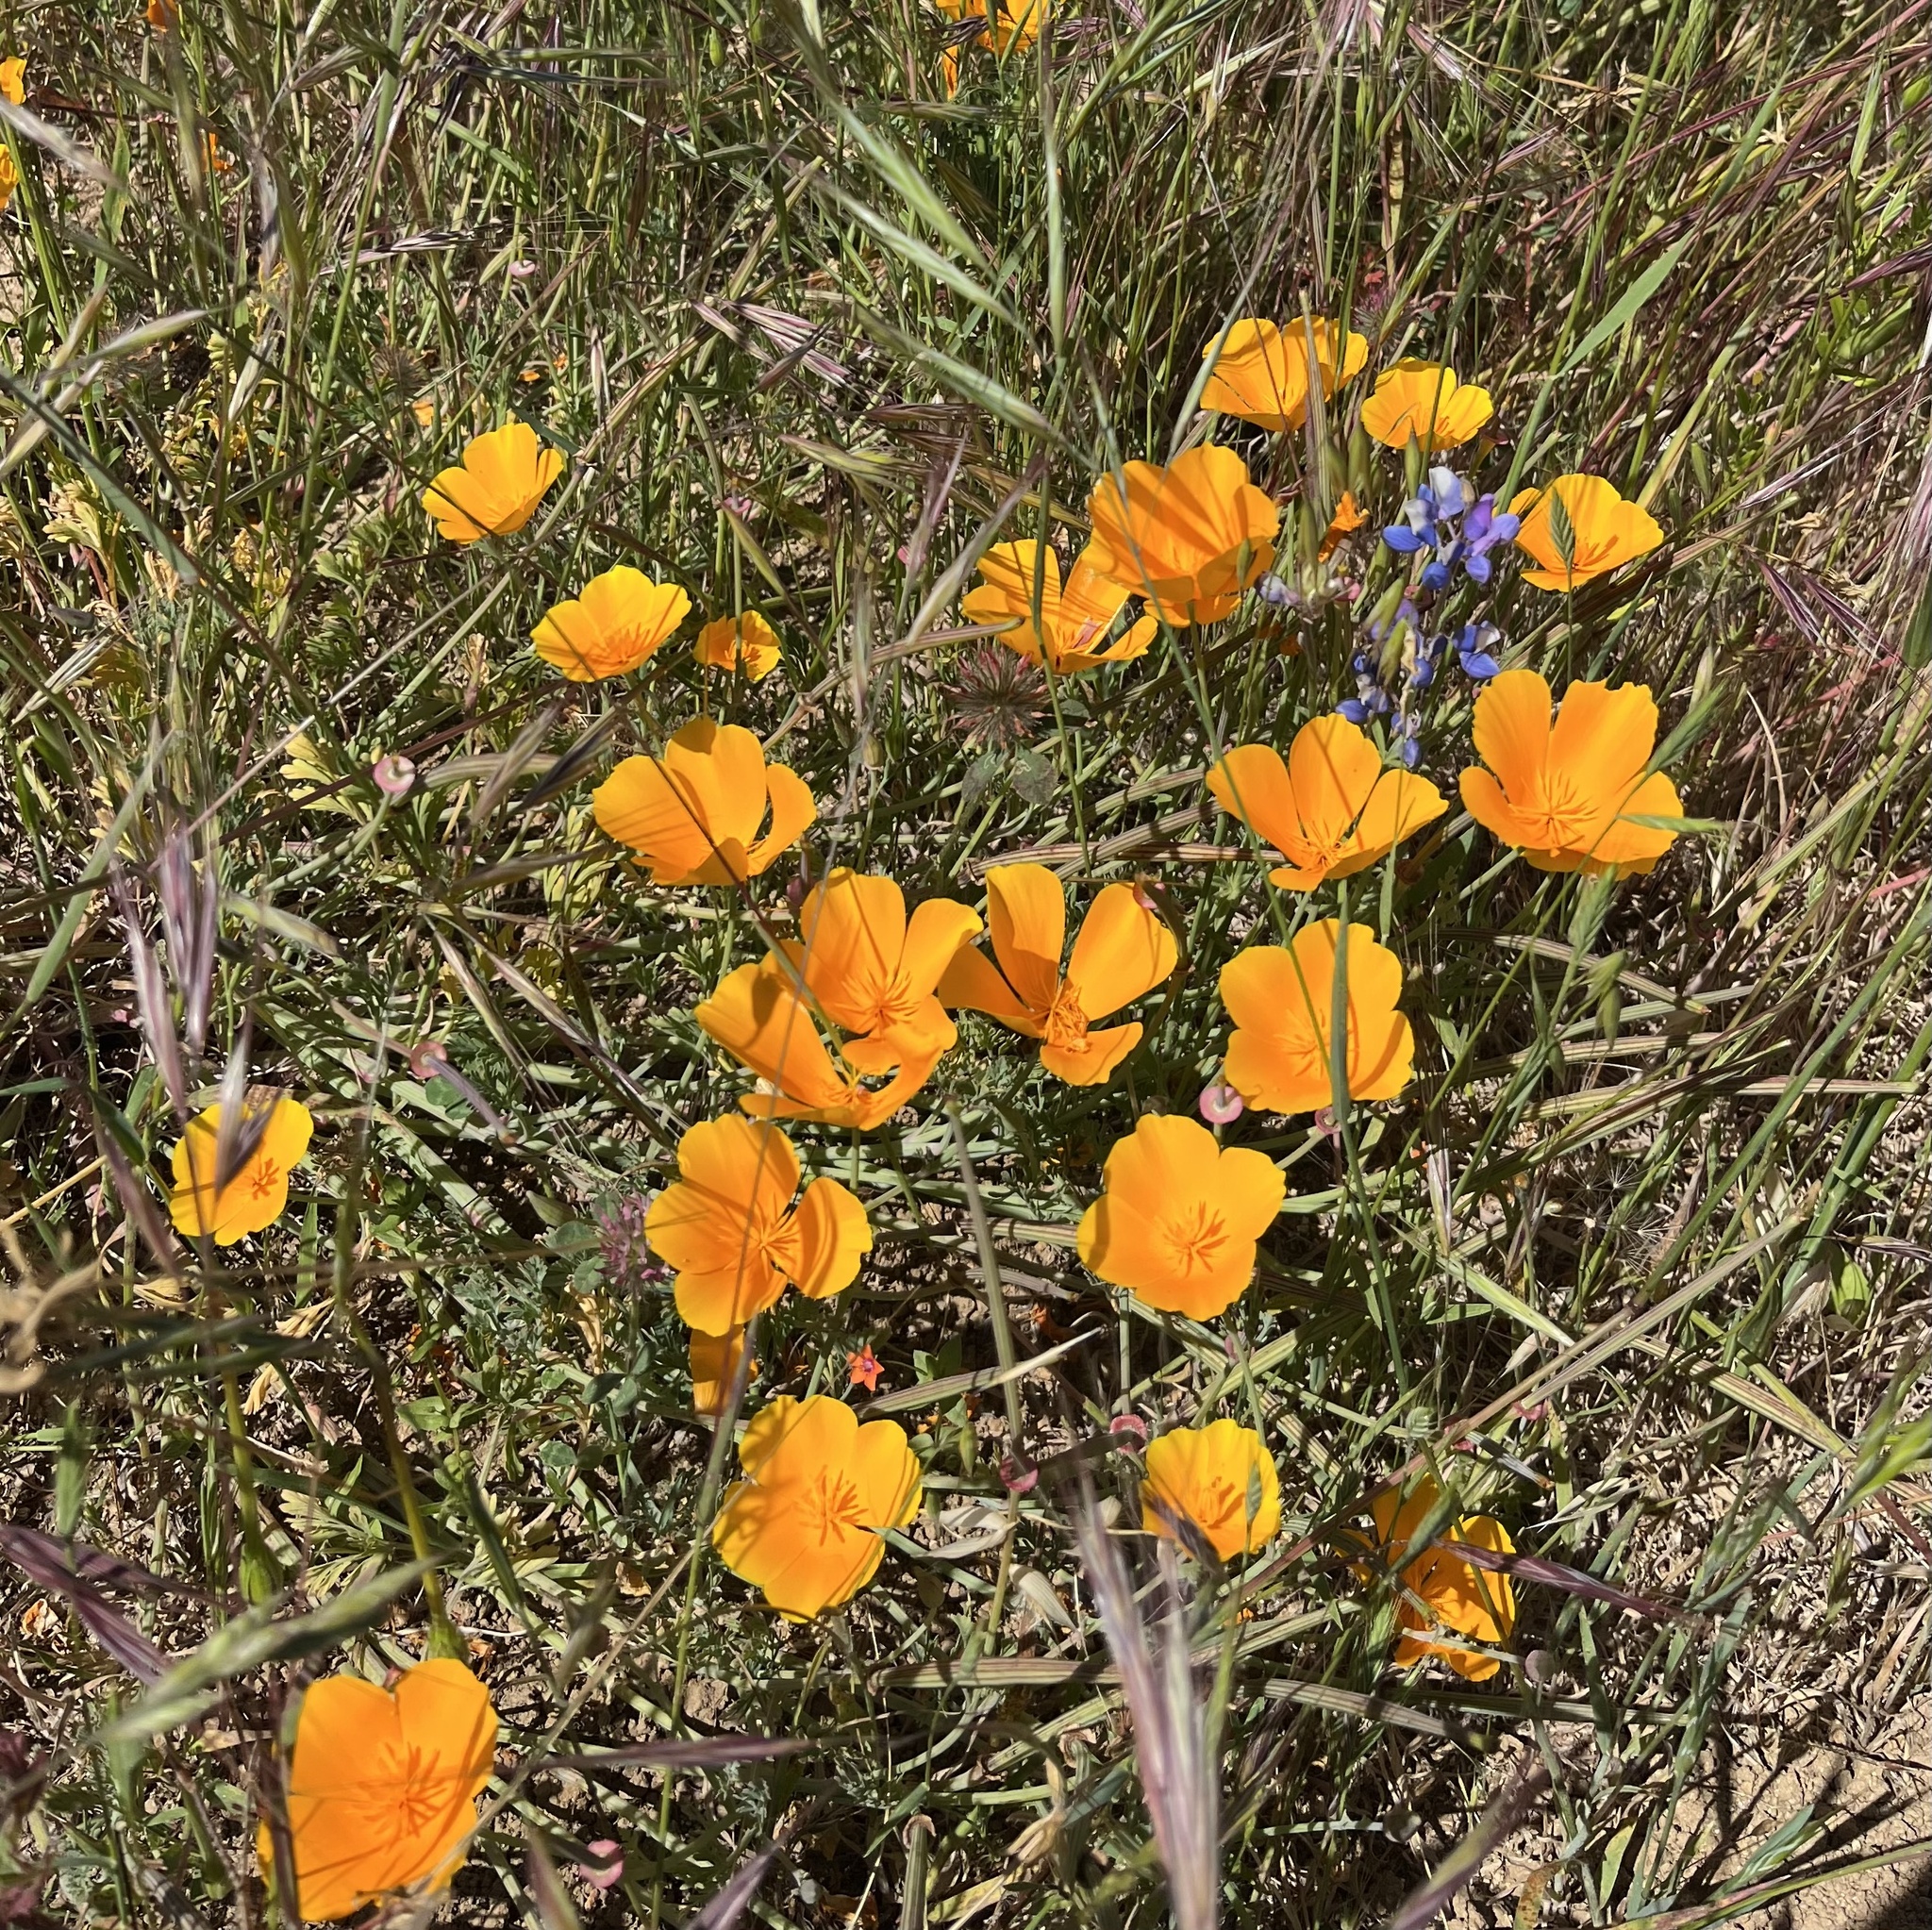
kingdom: Plantae
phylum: Tracheophyta
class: Magnoliopsida
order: Ranunculales
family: Papaveraceae
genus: Eschscholzia
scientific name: Eschscholzia californica
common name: California poppy
